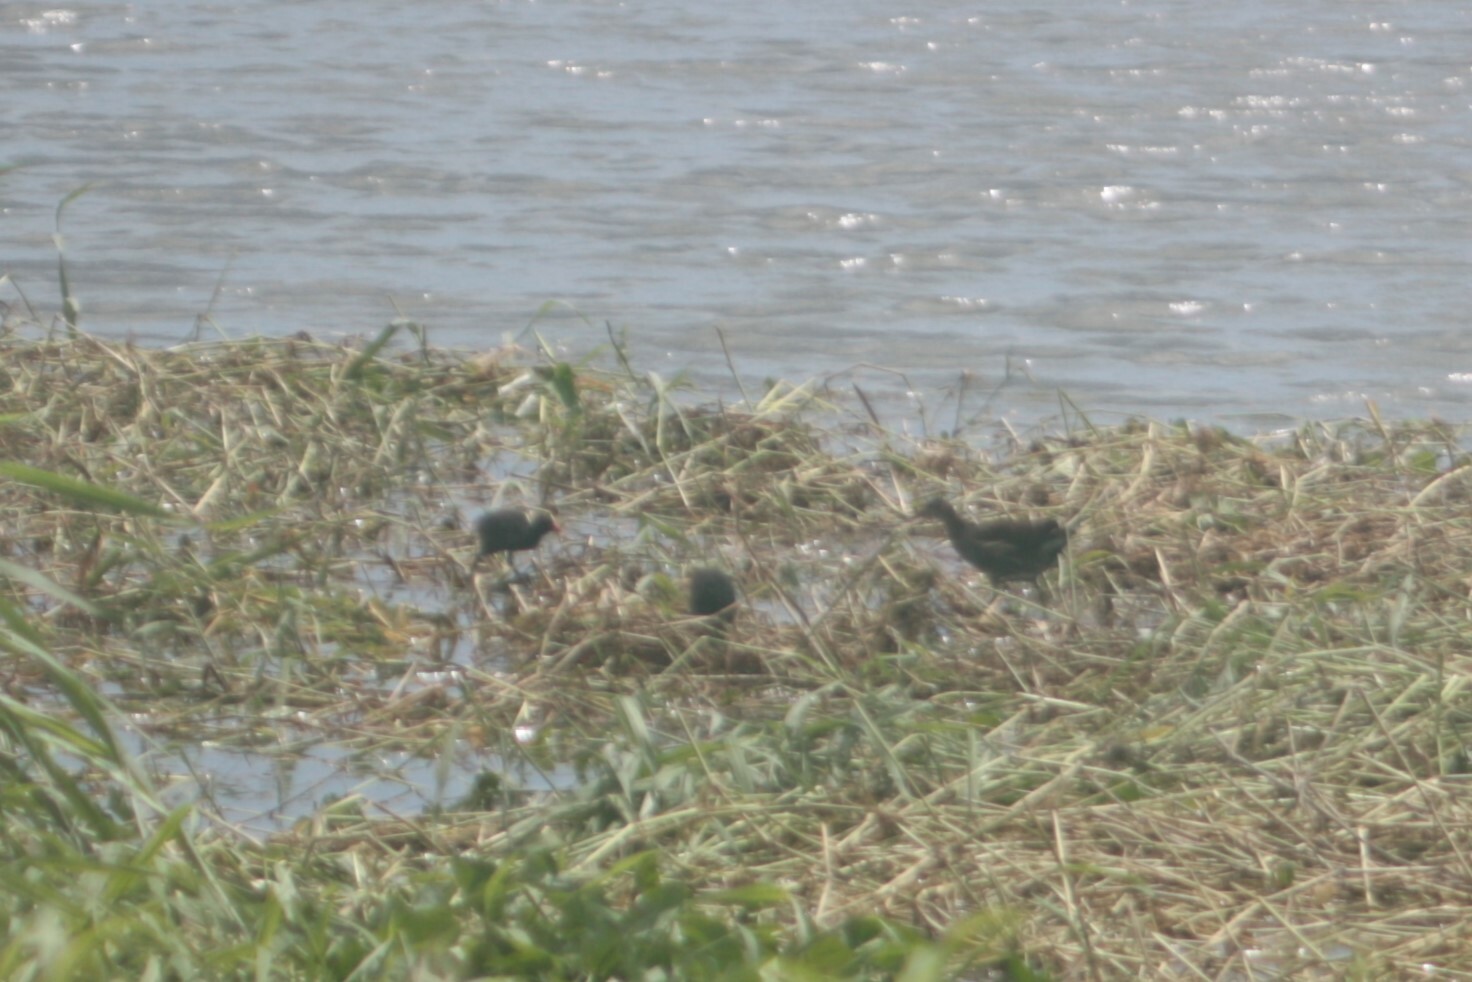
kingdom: Animalia
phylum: Chordata
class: Aves
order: Gruiformes
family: Rallidae
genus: Gallinula
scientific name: Gallinula chloropus
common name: Common moorhen
